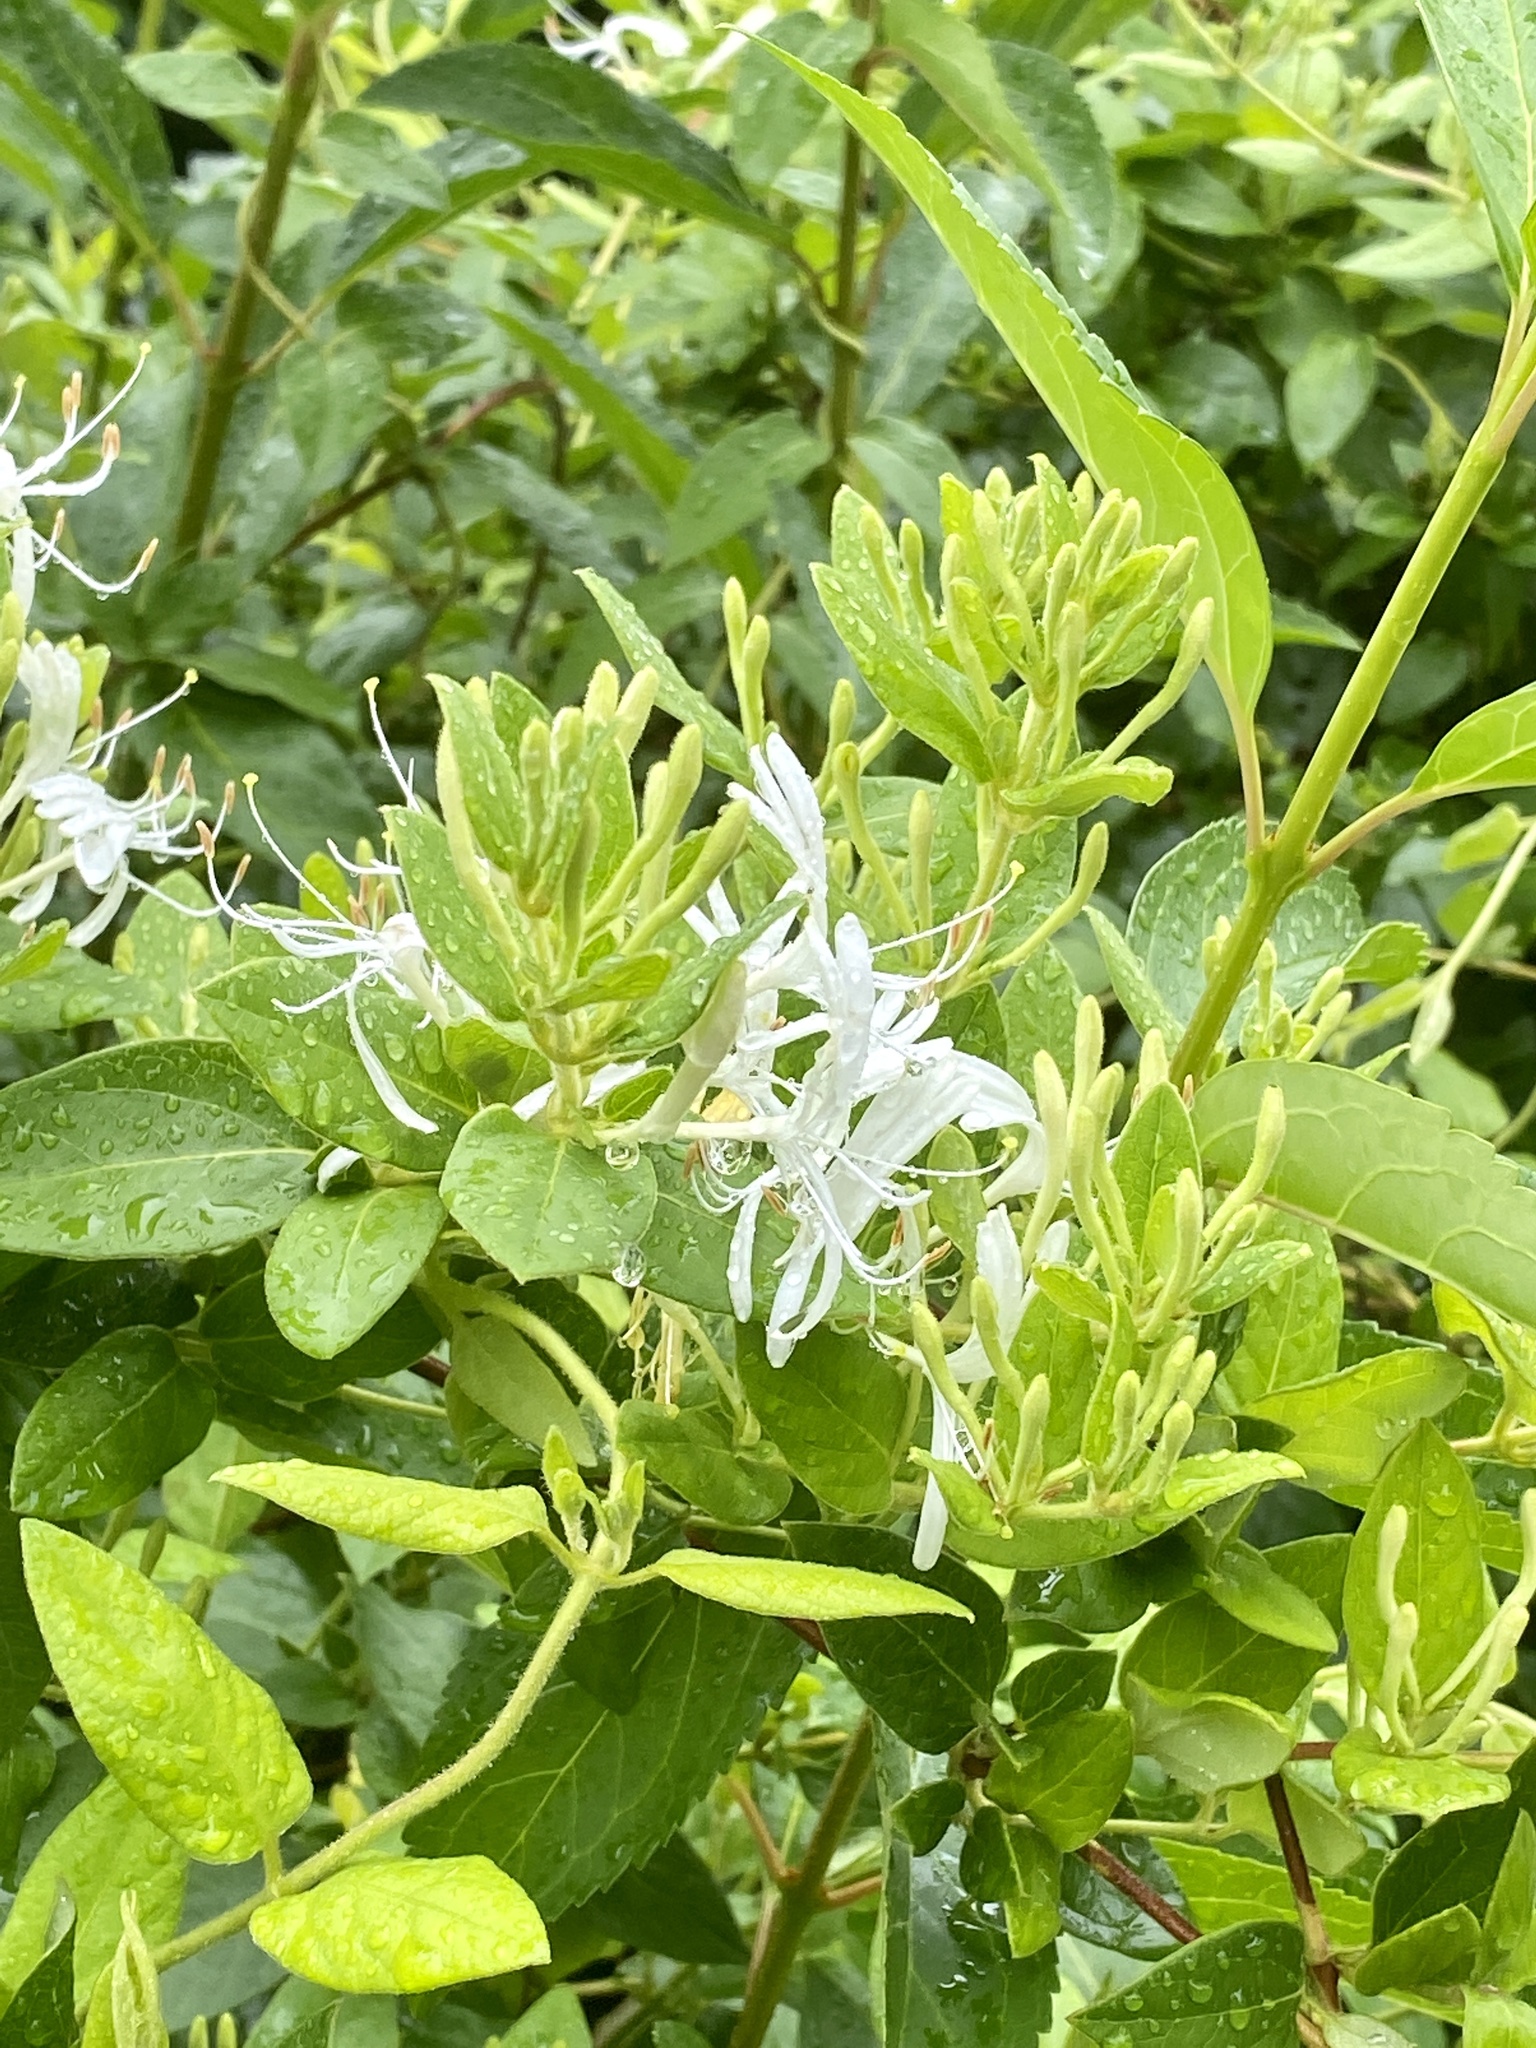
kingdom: Plantae
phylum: Tracheophyta
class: Magnoliopsida
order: Dipsacales
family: Caprifoliaceae
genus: Lonicera
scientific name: Lonicera japonica
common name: Japanese honeysuckle
